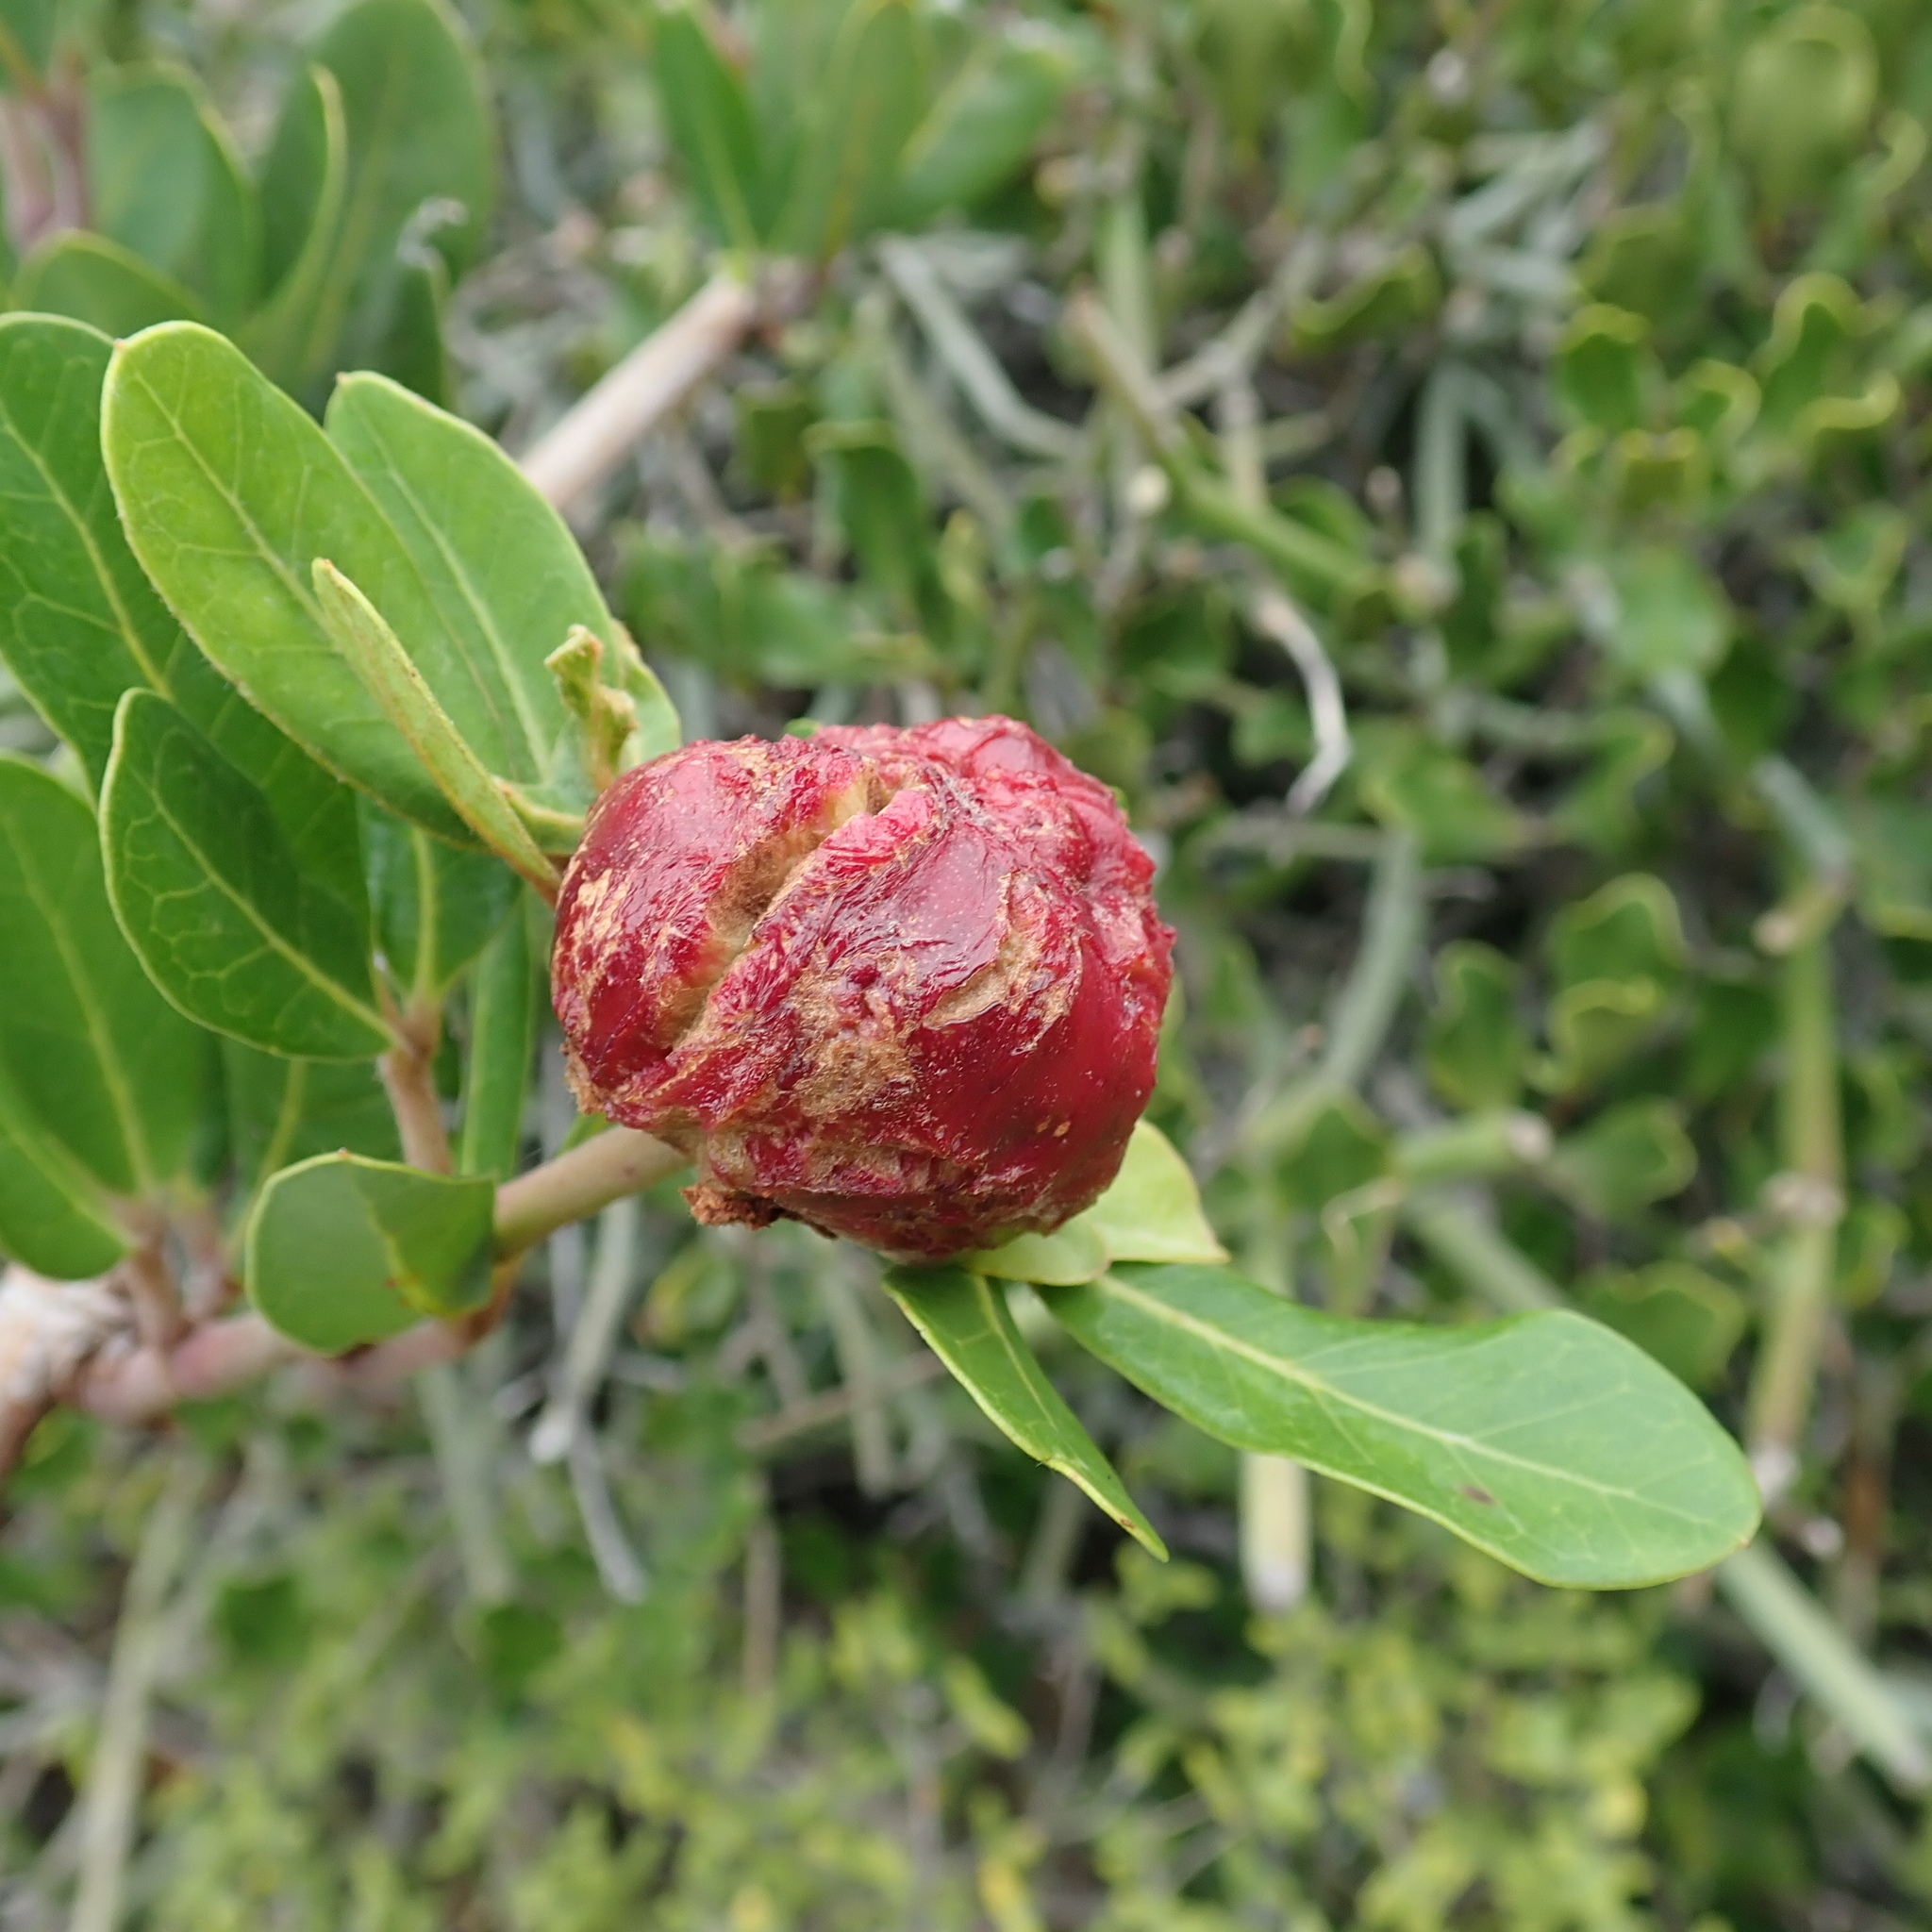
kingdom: Plantae
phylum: Tracheophyta
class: Magnoliopsida
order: Vitales
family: Vitaceae
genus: Rhoicissus
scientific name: Rhoicissus digitata
